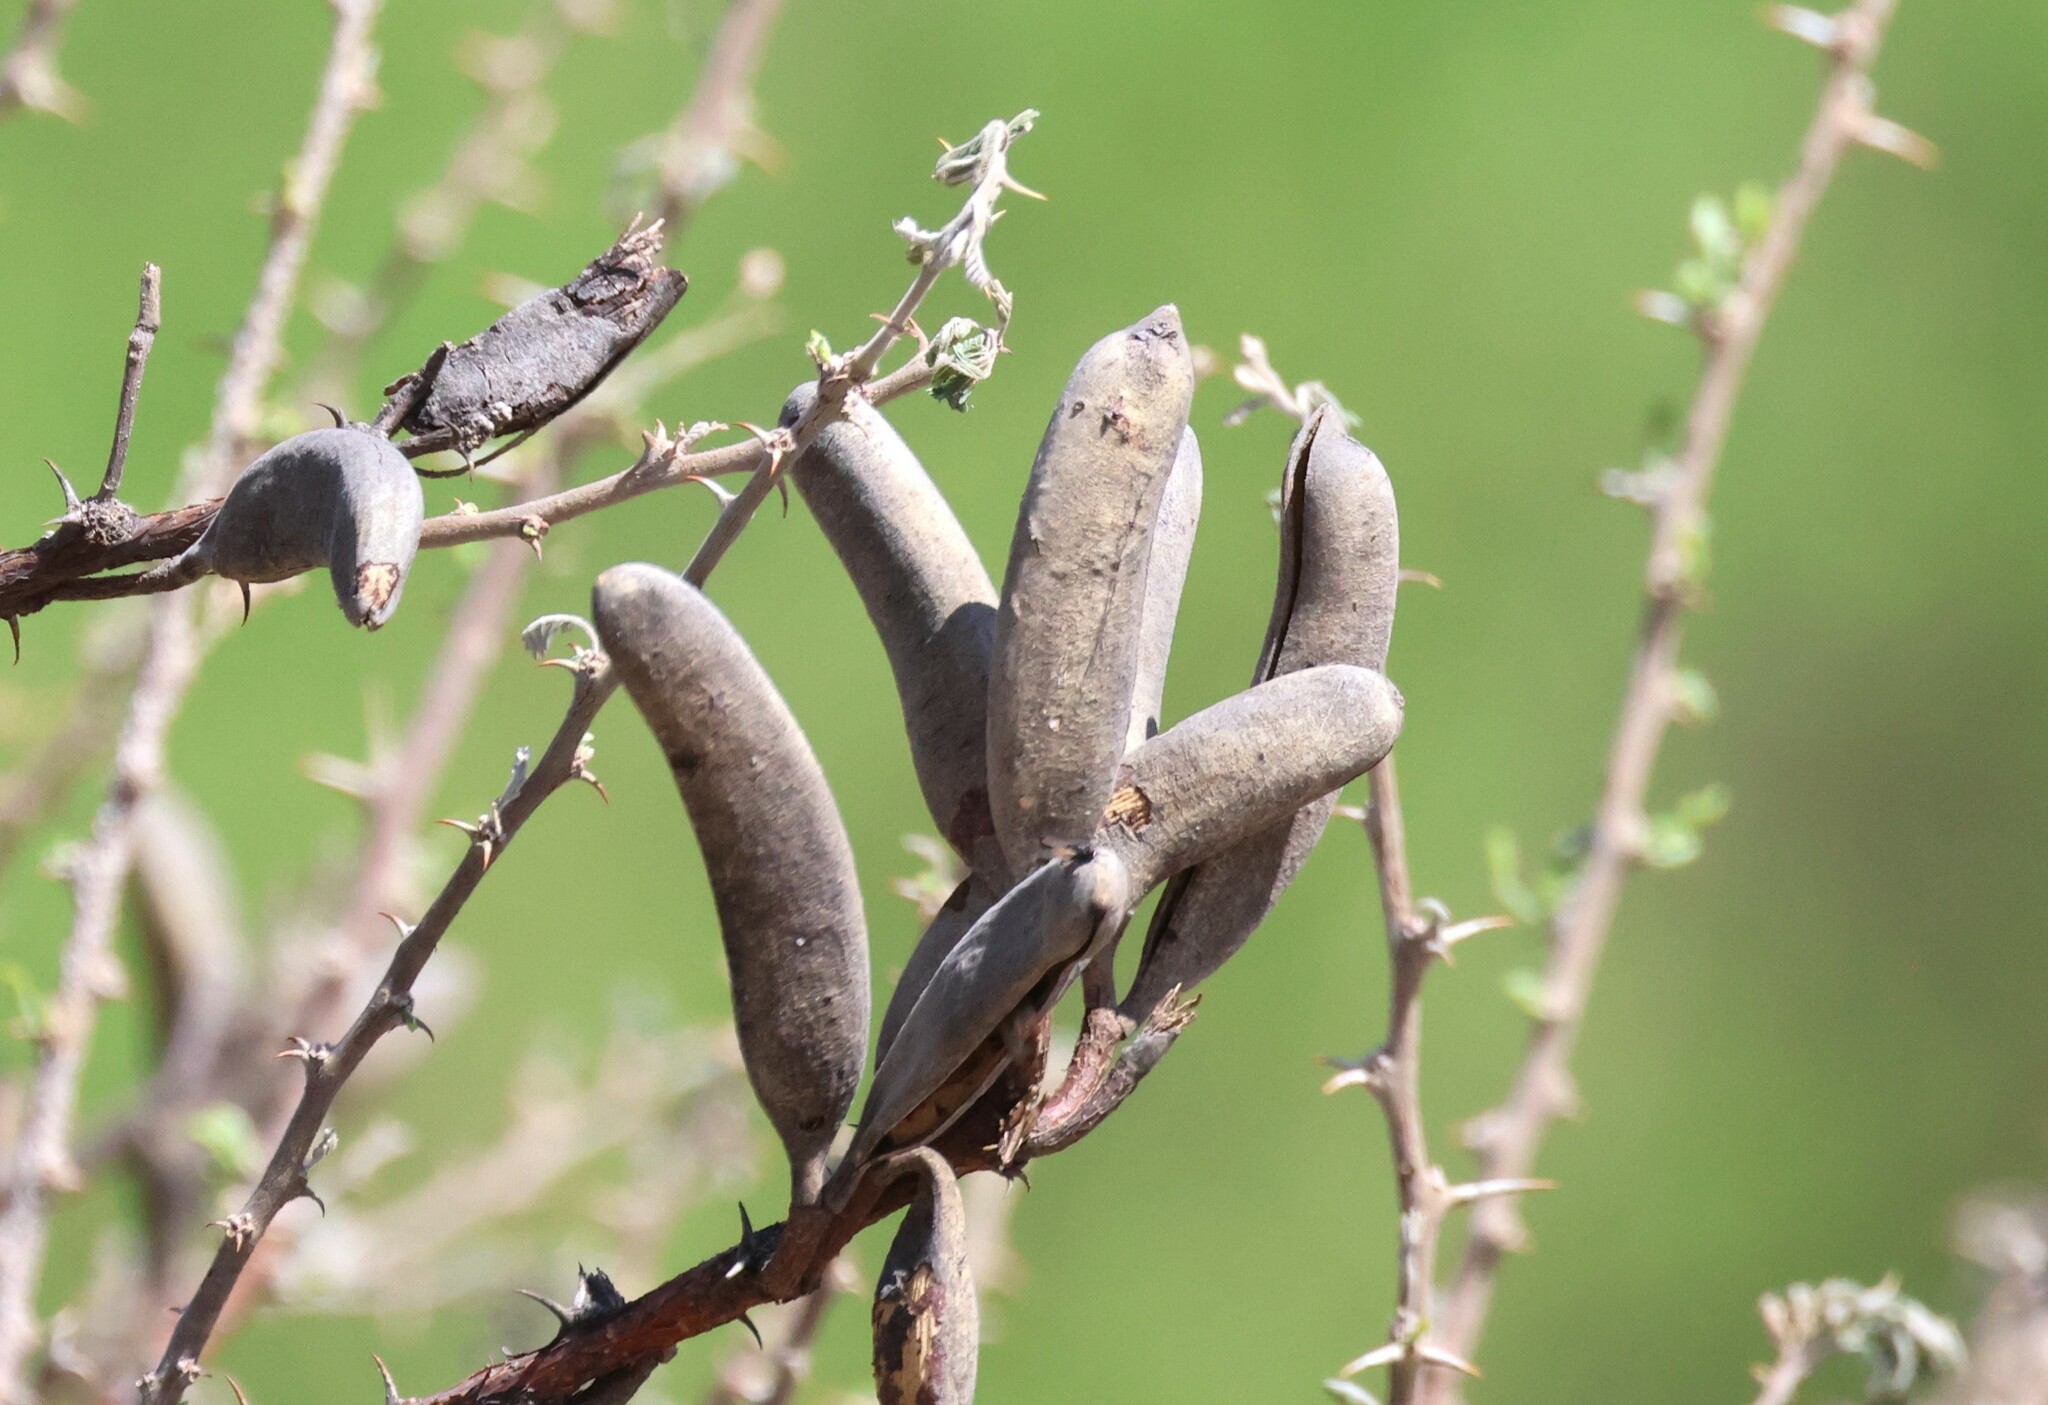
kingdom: Plantae
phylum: Tracheophyta
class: Magnoliopsida
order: Fabales
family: Fabaceae
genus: Vachellia
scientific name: Vachellia hebeclada
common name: Candle thorn
